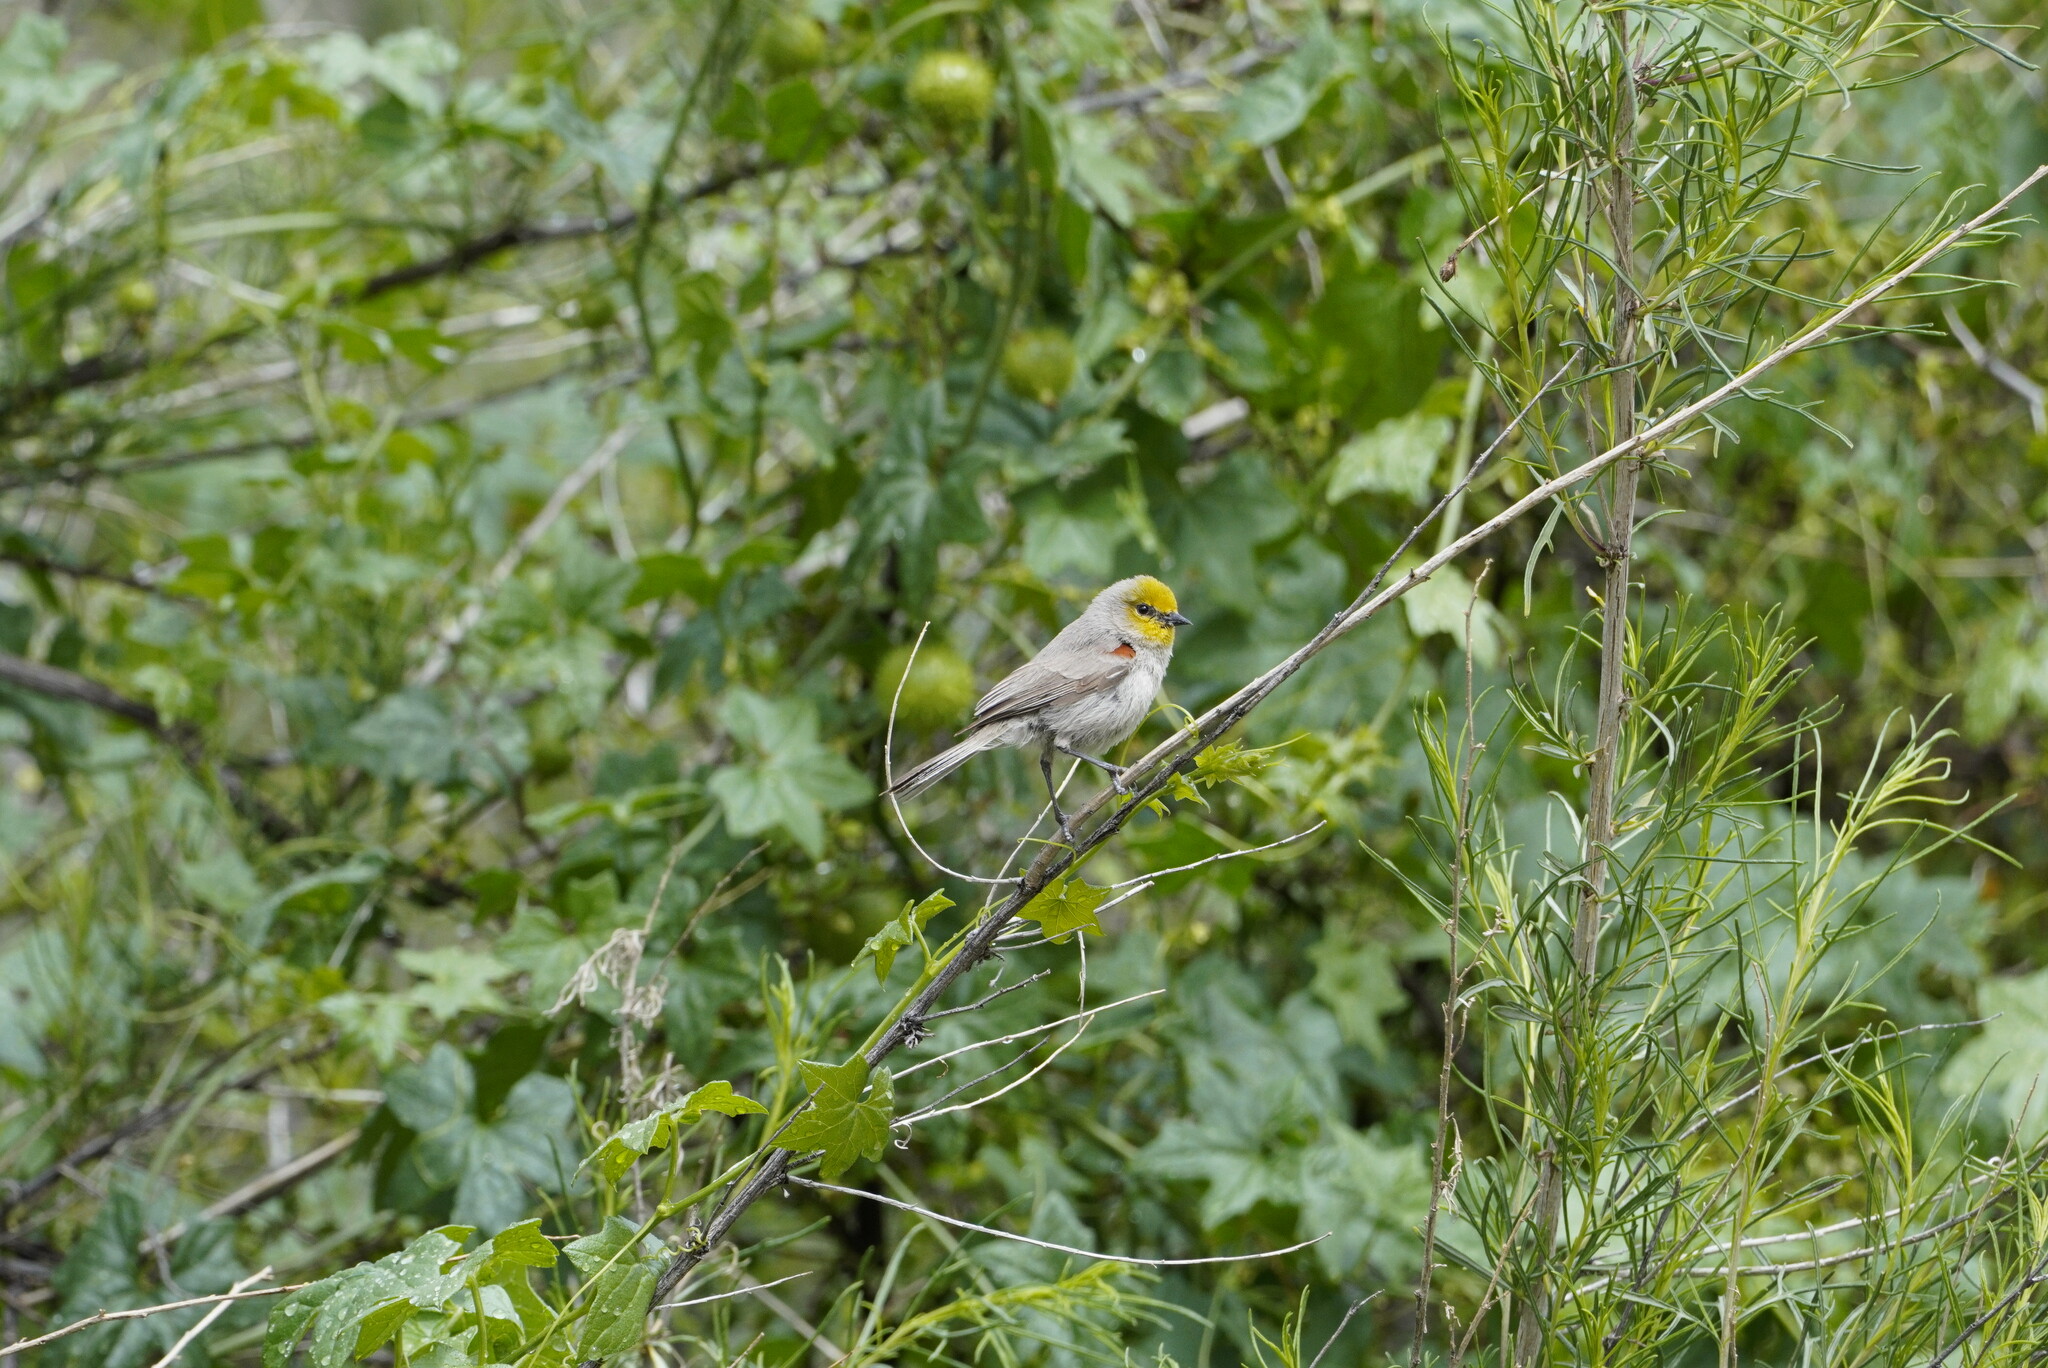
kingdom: Animalia
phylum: Chordata
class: Aves
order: Passeriformes
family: Remizidae
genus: Auriparus
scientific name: Auriparus flaviceps
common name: Verdin
